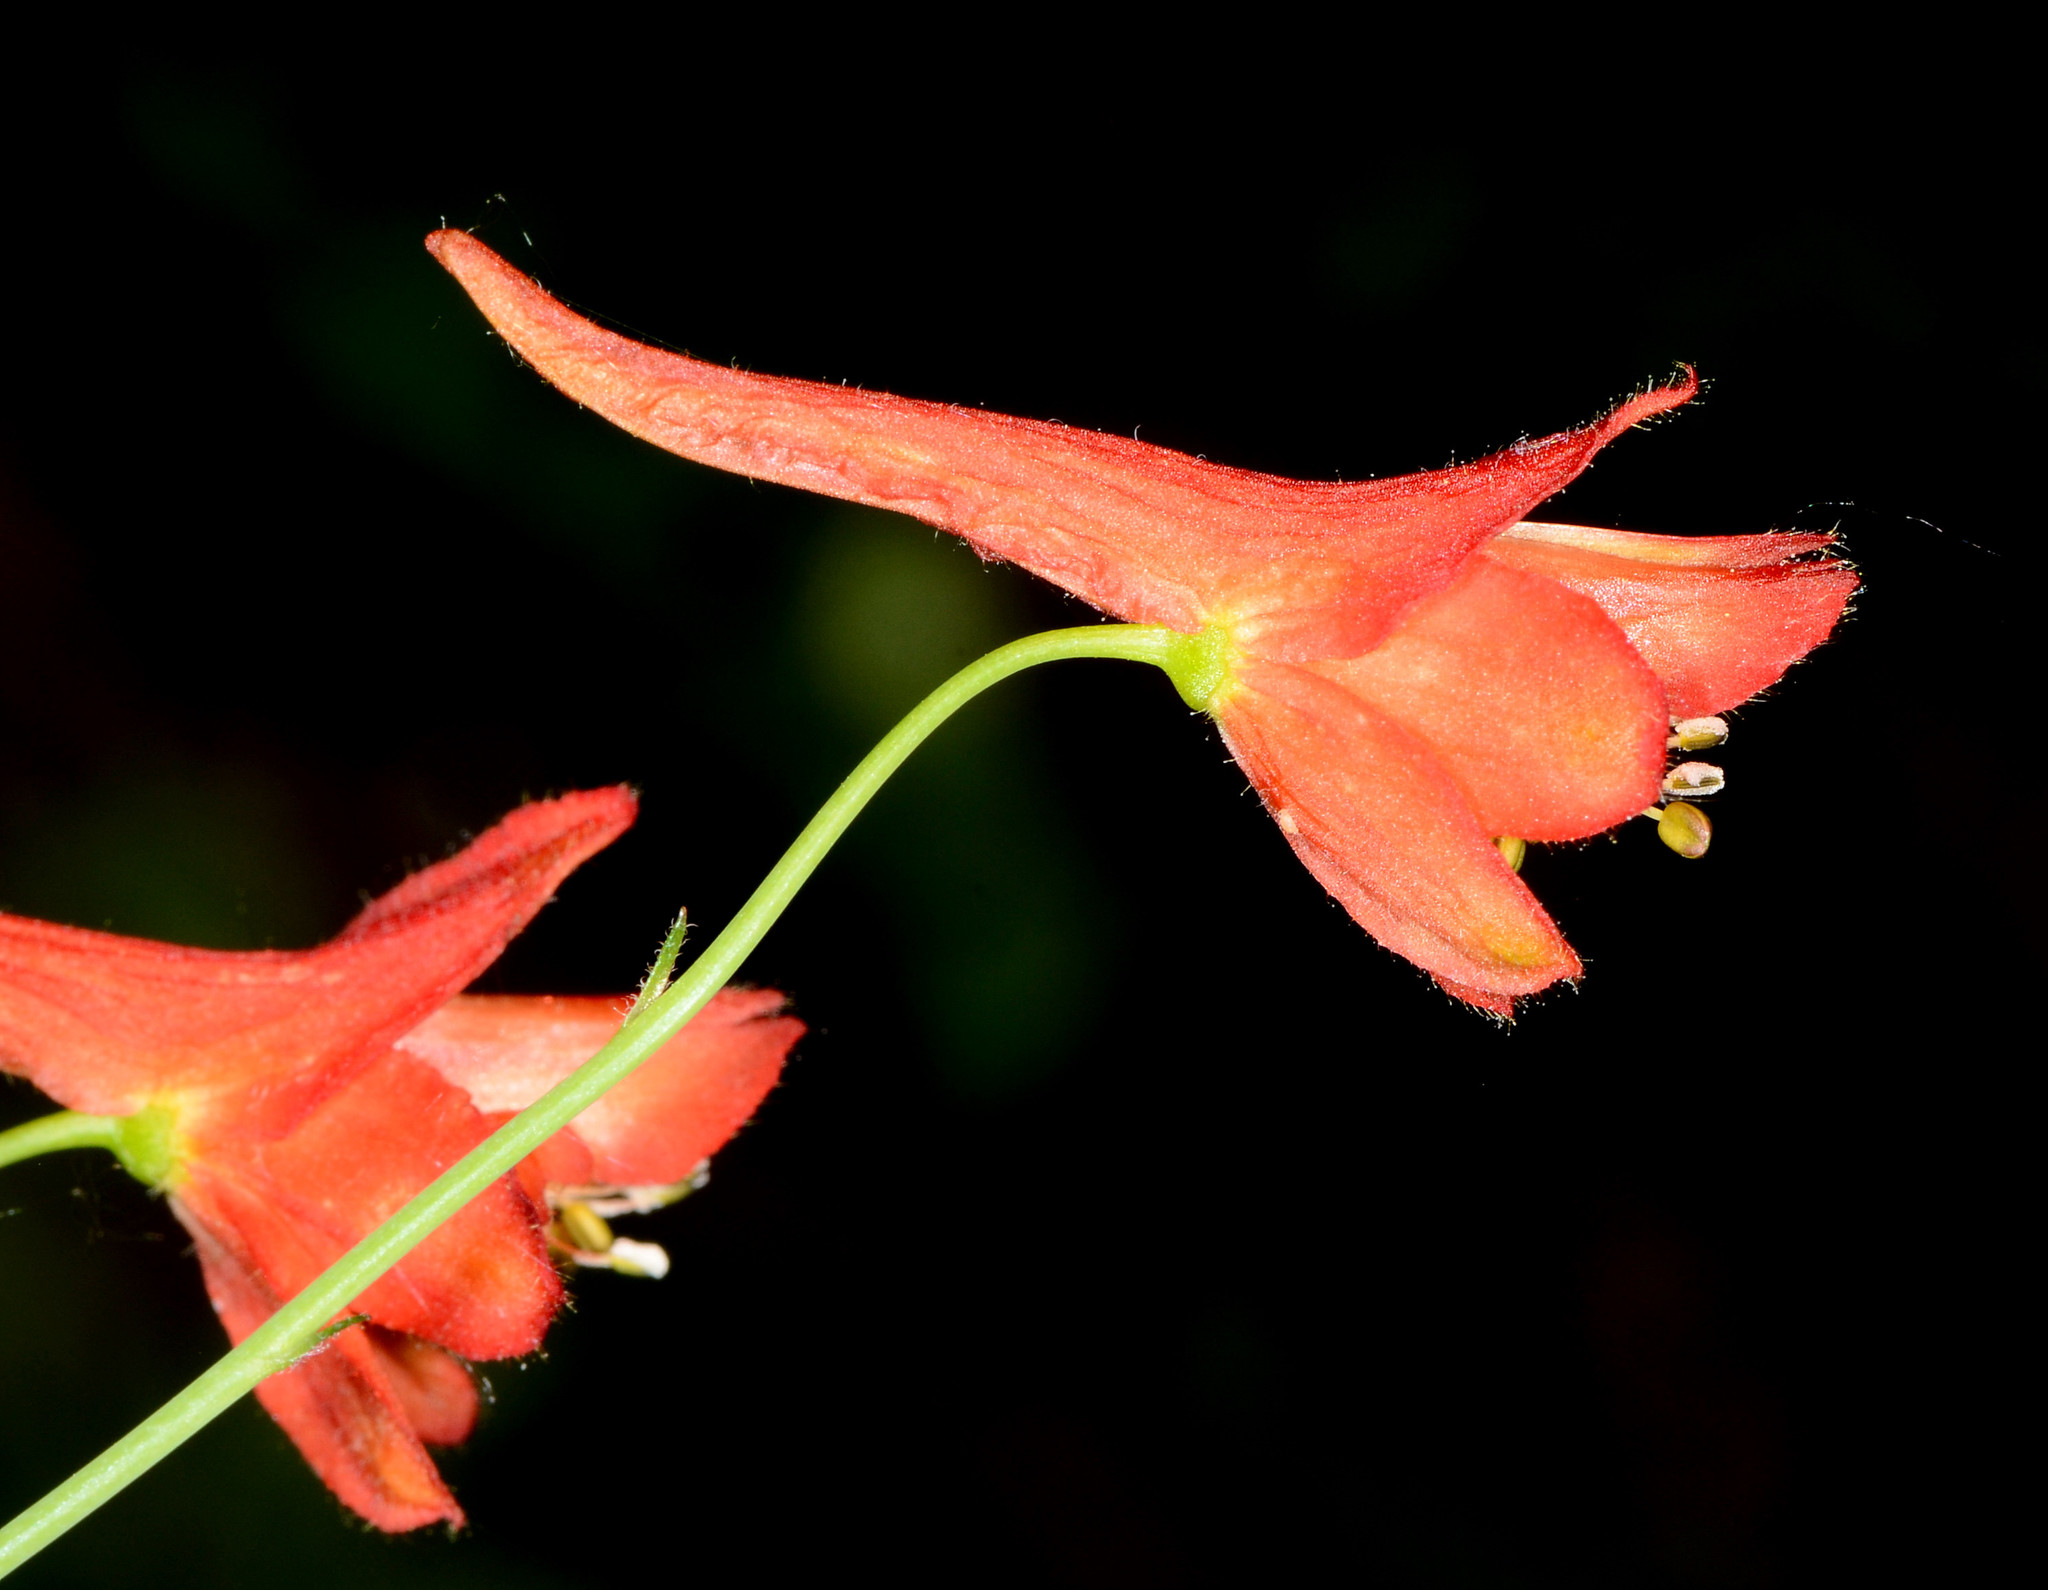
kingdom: Plantae
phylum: Tracheophyta
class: Magnoliopsida
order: Ranunculales
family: Ranunculaceae
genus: Delphinium
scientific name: Delphinium nudicaule
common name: Red larkspur
